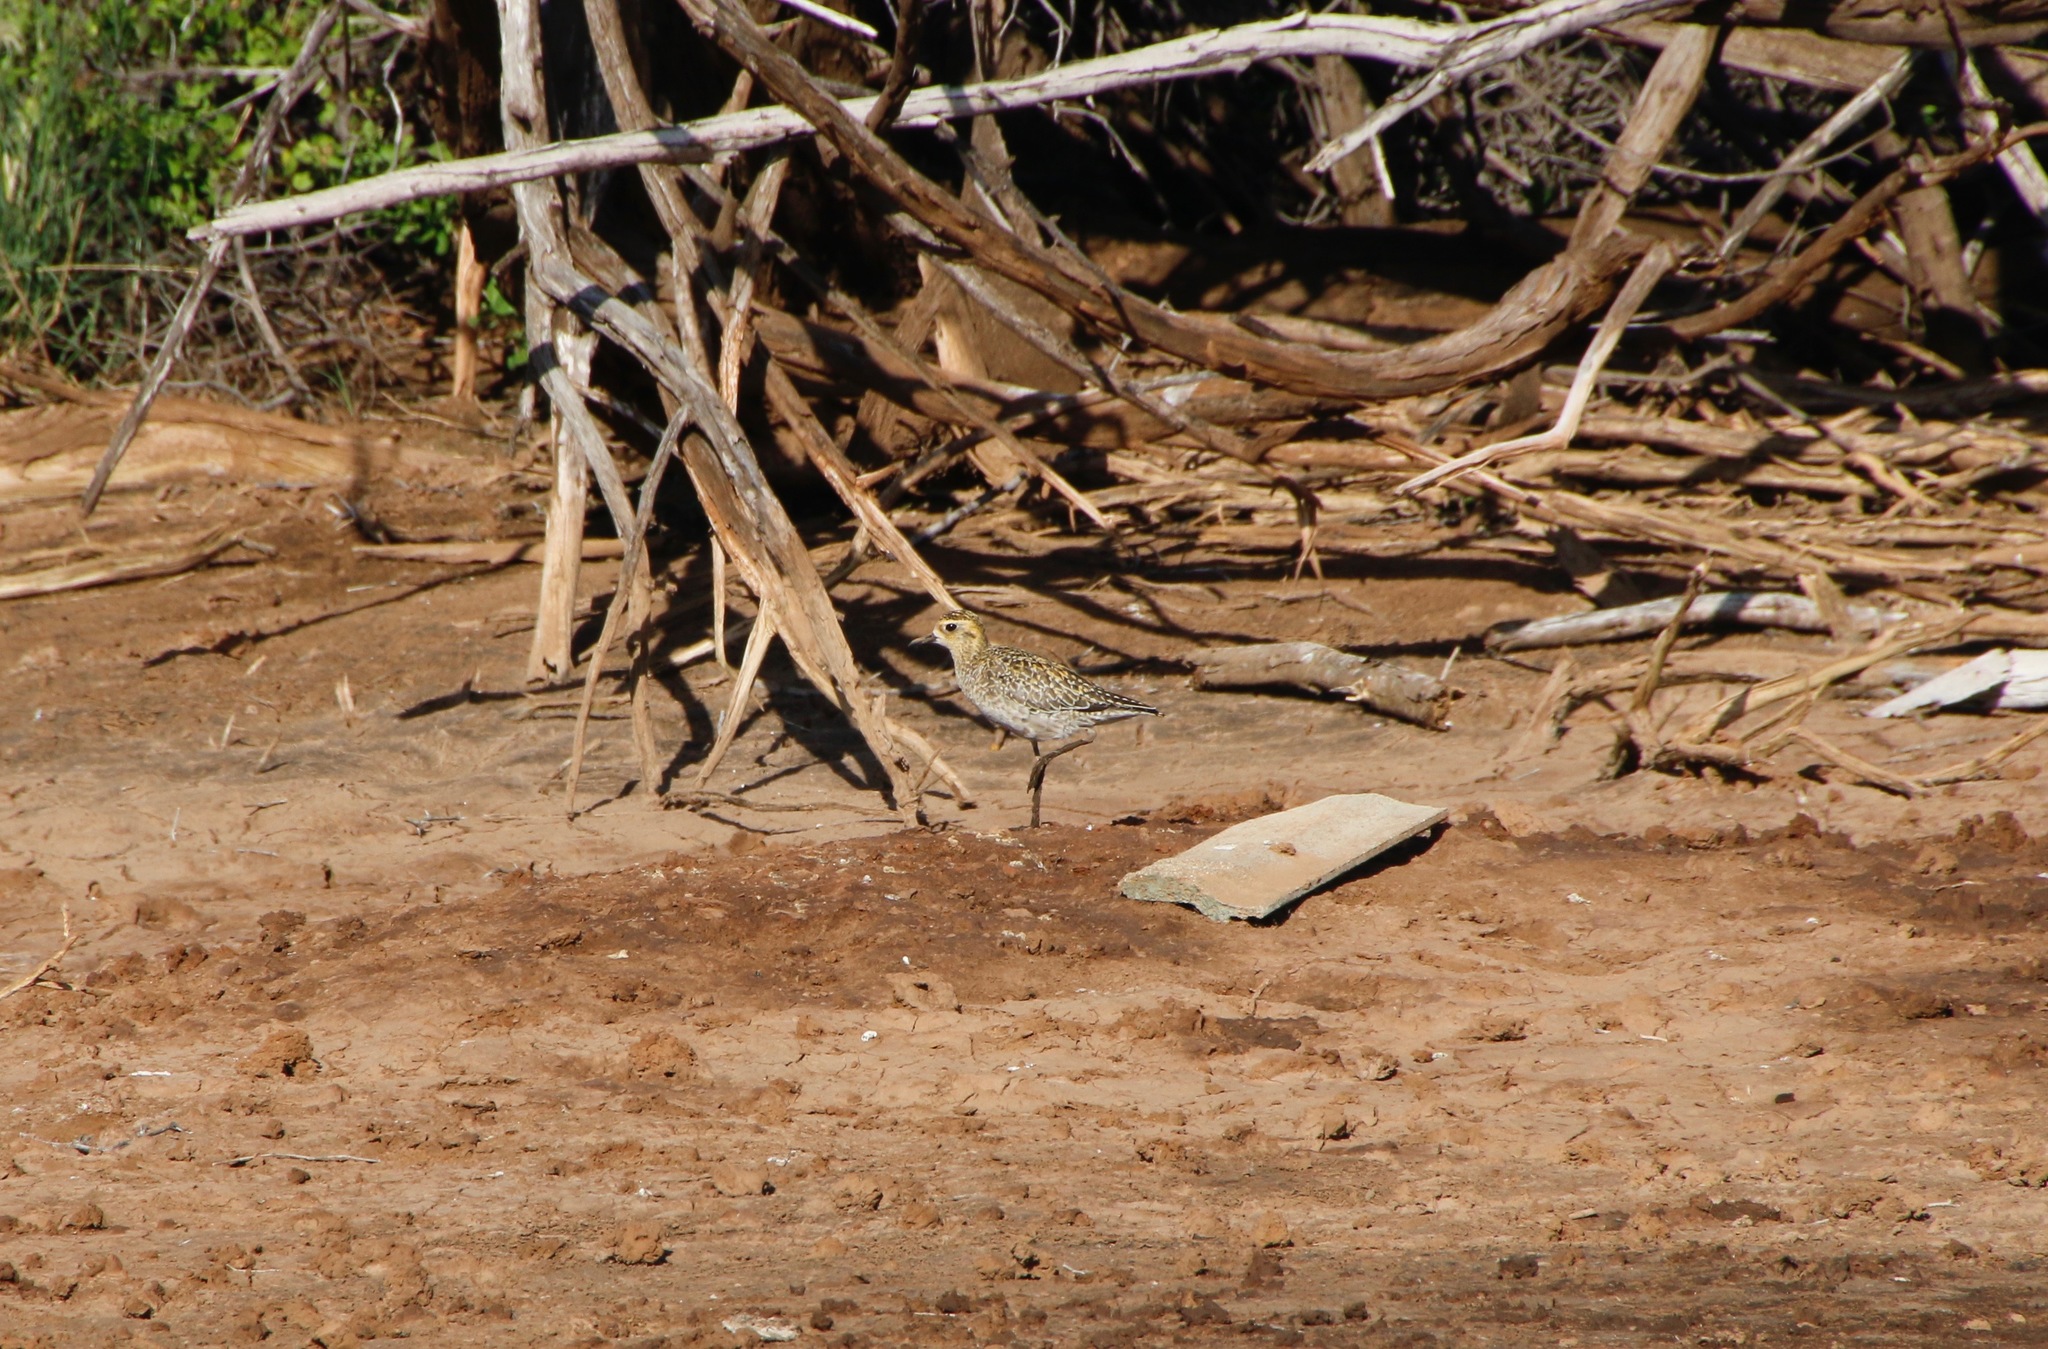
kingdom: Animalia
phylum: Chordata
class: Aves
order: Charadriiformes
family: Charadriidae
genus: Pluvialis
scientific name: Pluvialis fulva
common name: Pacific golden plover
